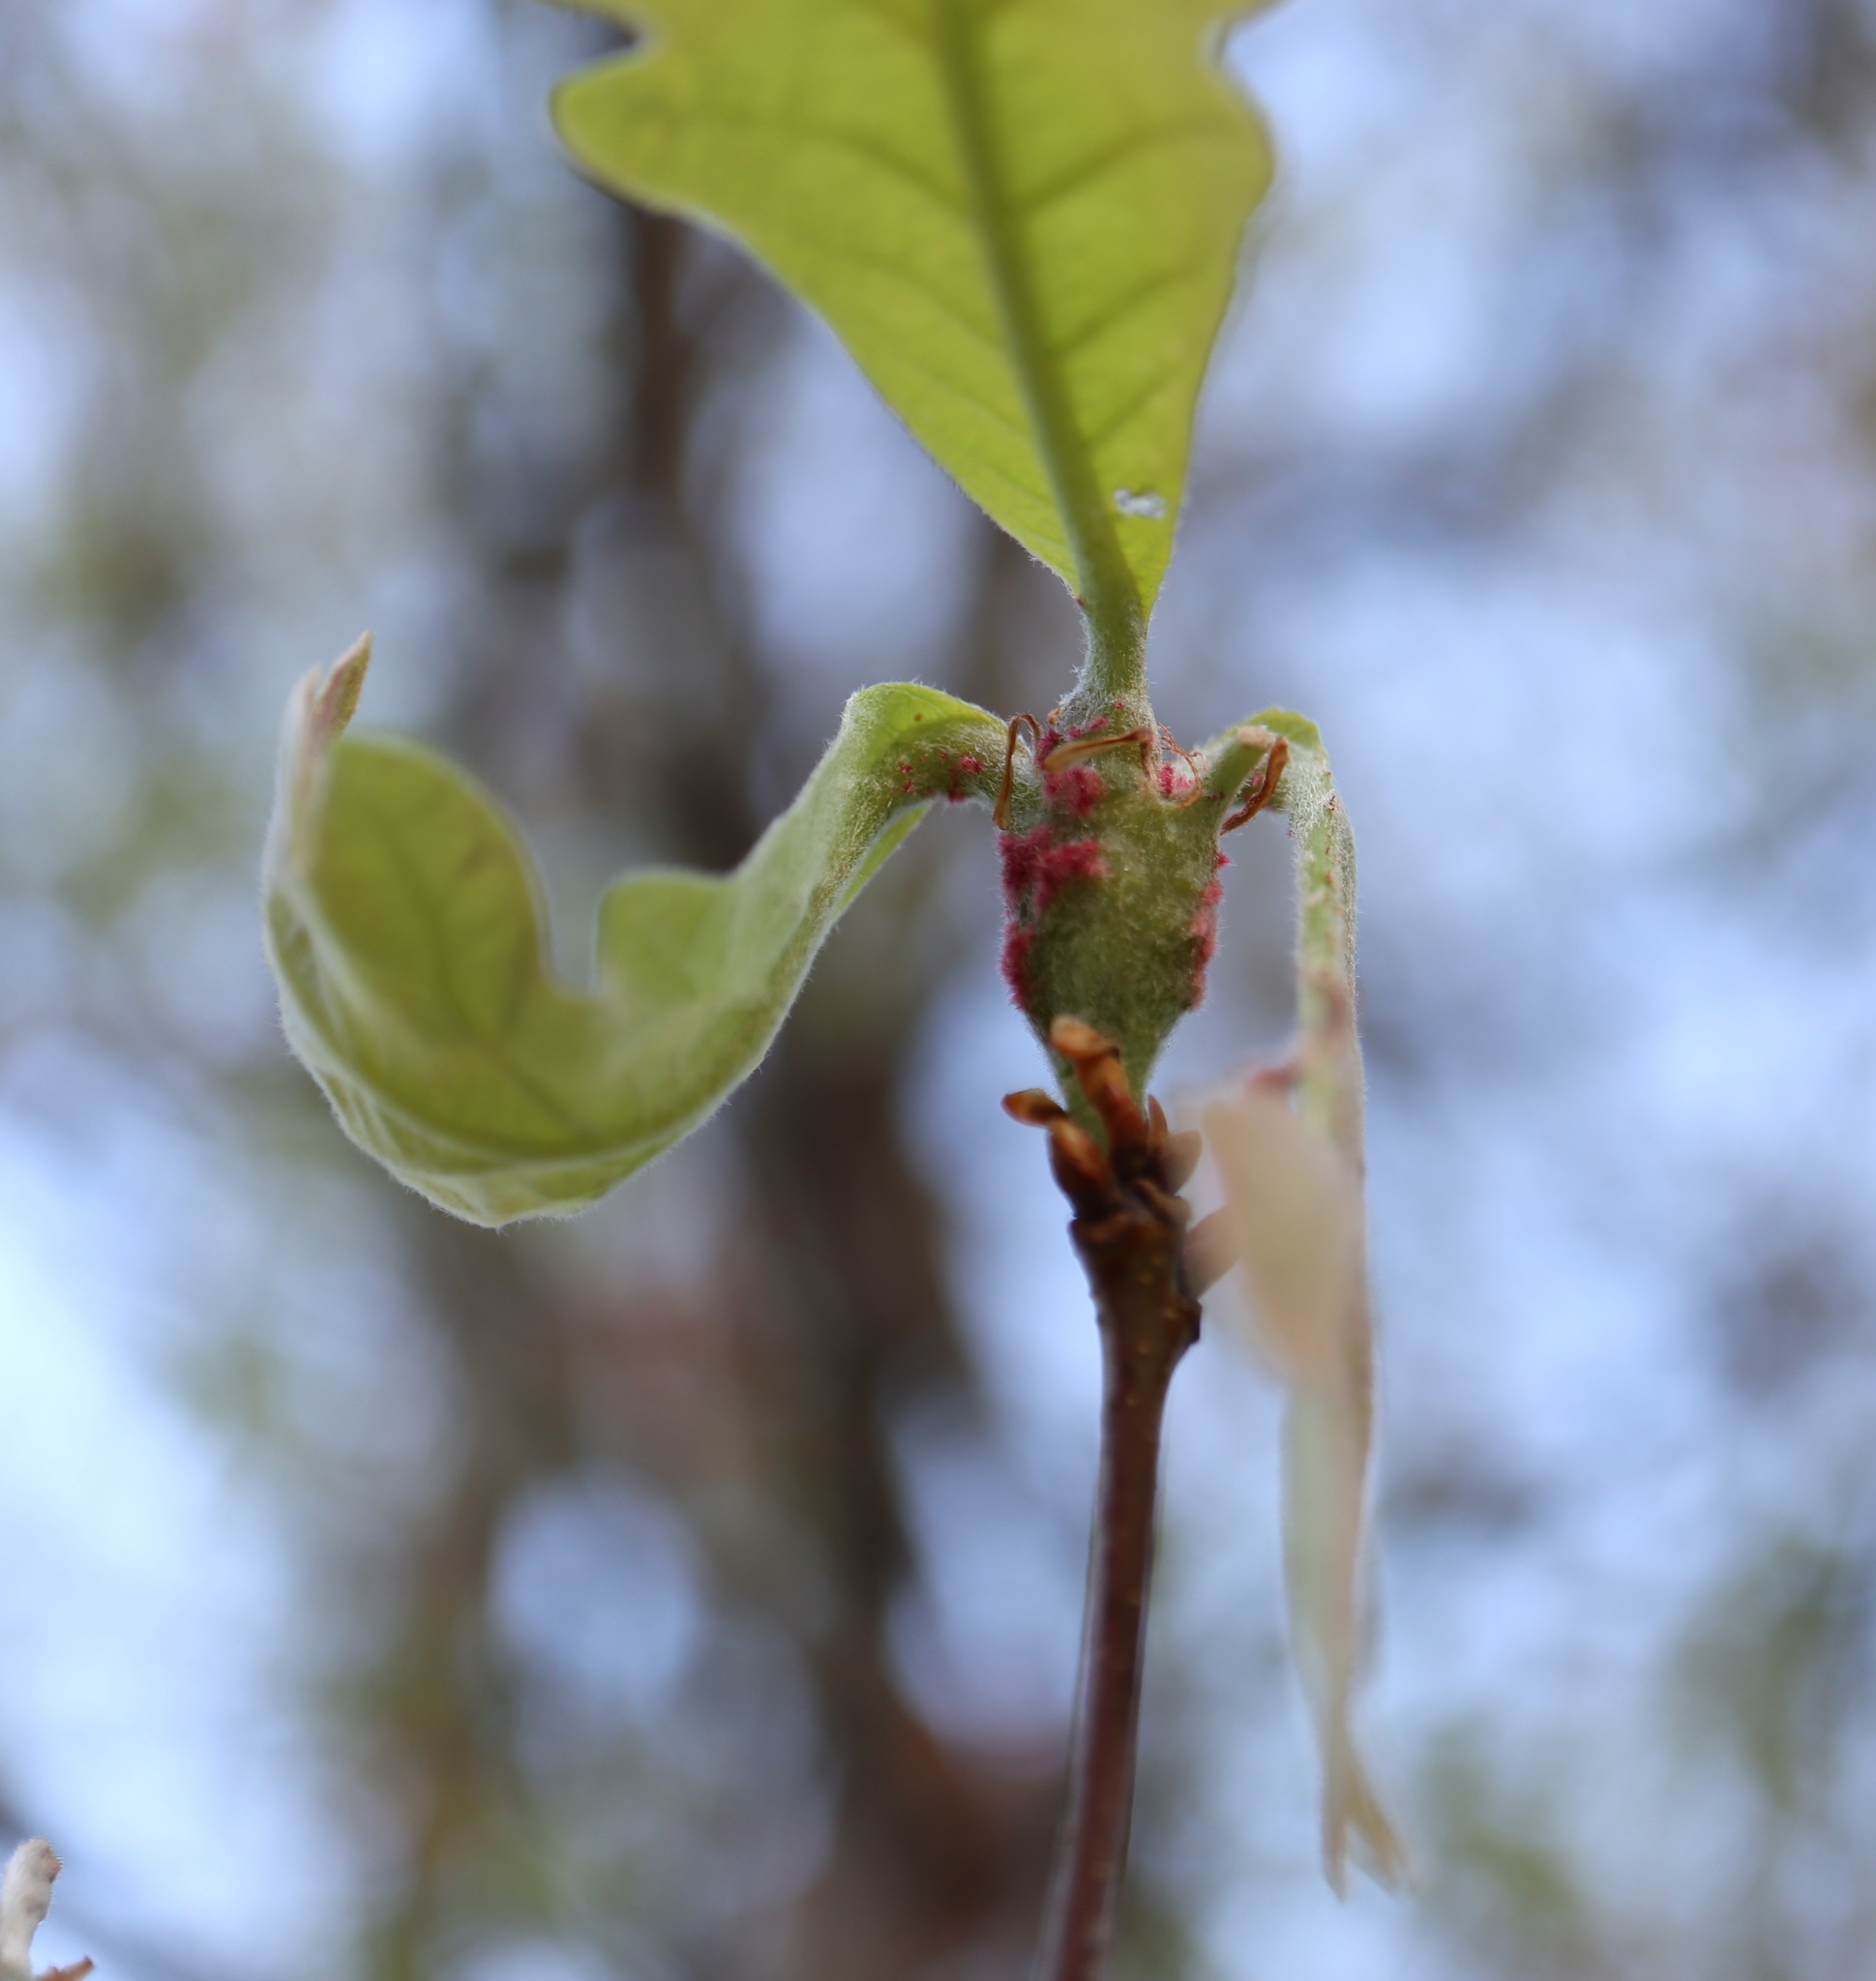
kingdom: Animalia
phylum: Arthropoda
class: Insecta
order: Hymenoptera
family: Cynipidae
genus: Neuroterus
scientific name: Neuroterus quercusbaccarum
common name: Common spangle gall
